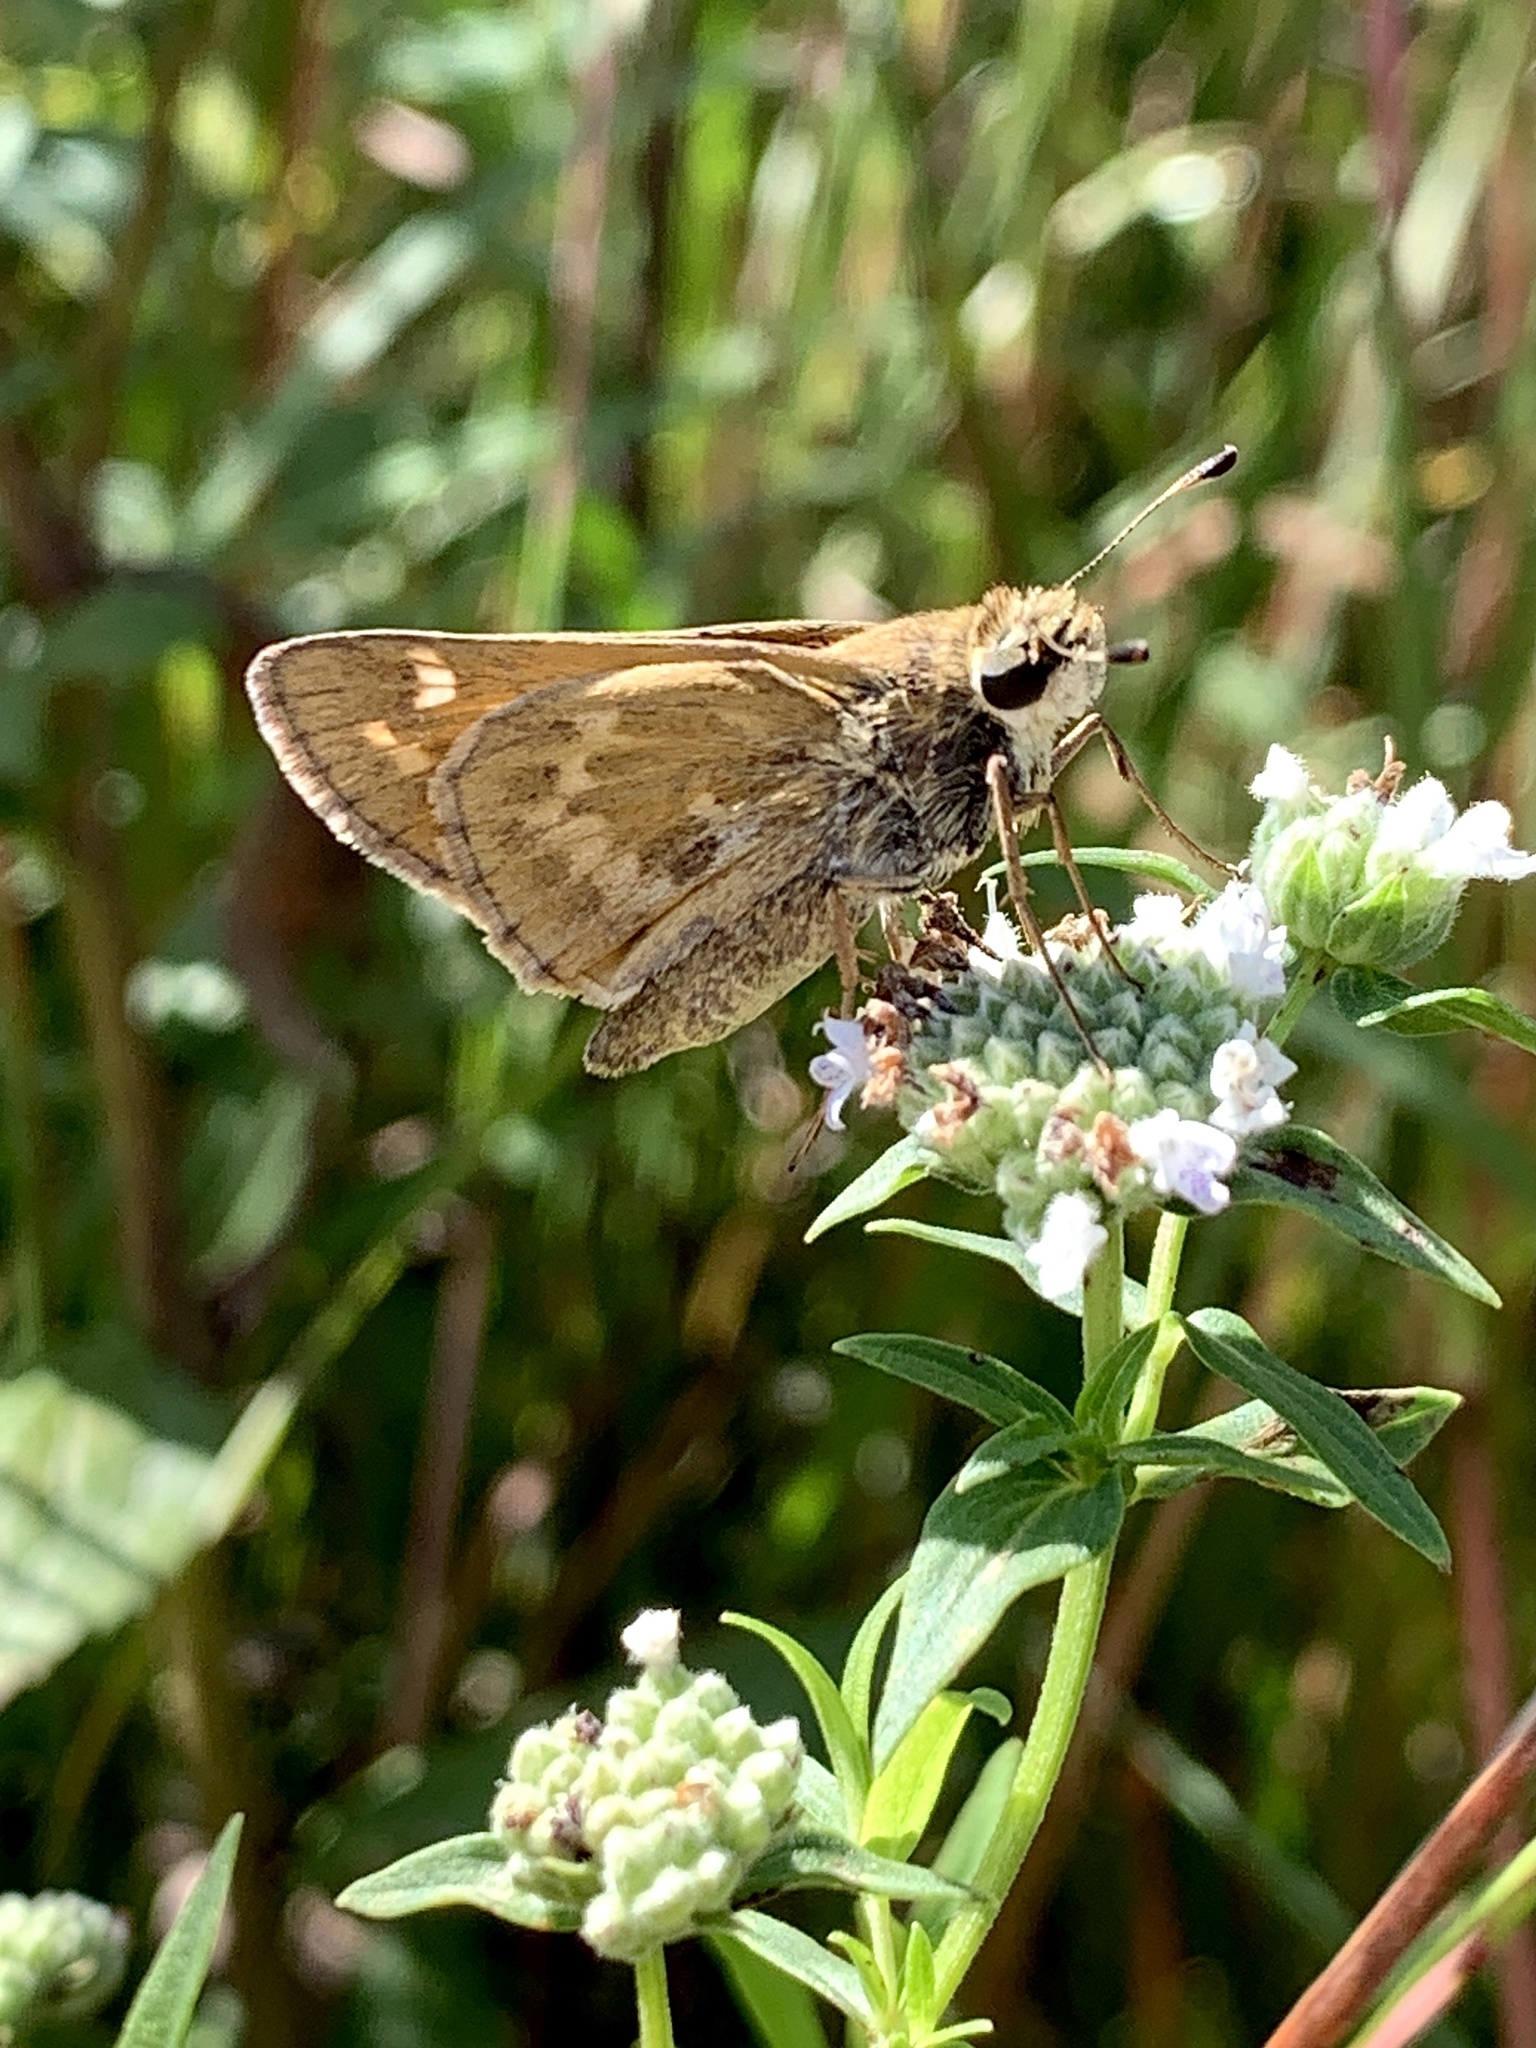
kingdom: Animalia
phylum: Arthropoda
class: Insecta
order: Lepidoptera
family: Hesperiidae
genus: Atalopedes
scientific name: Atalopedes
